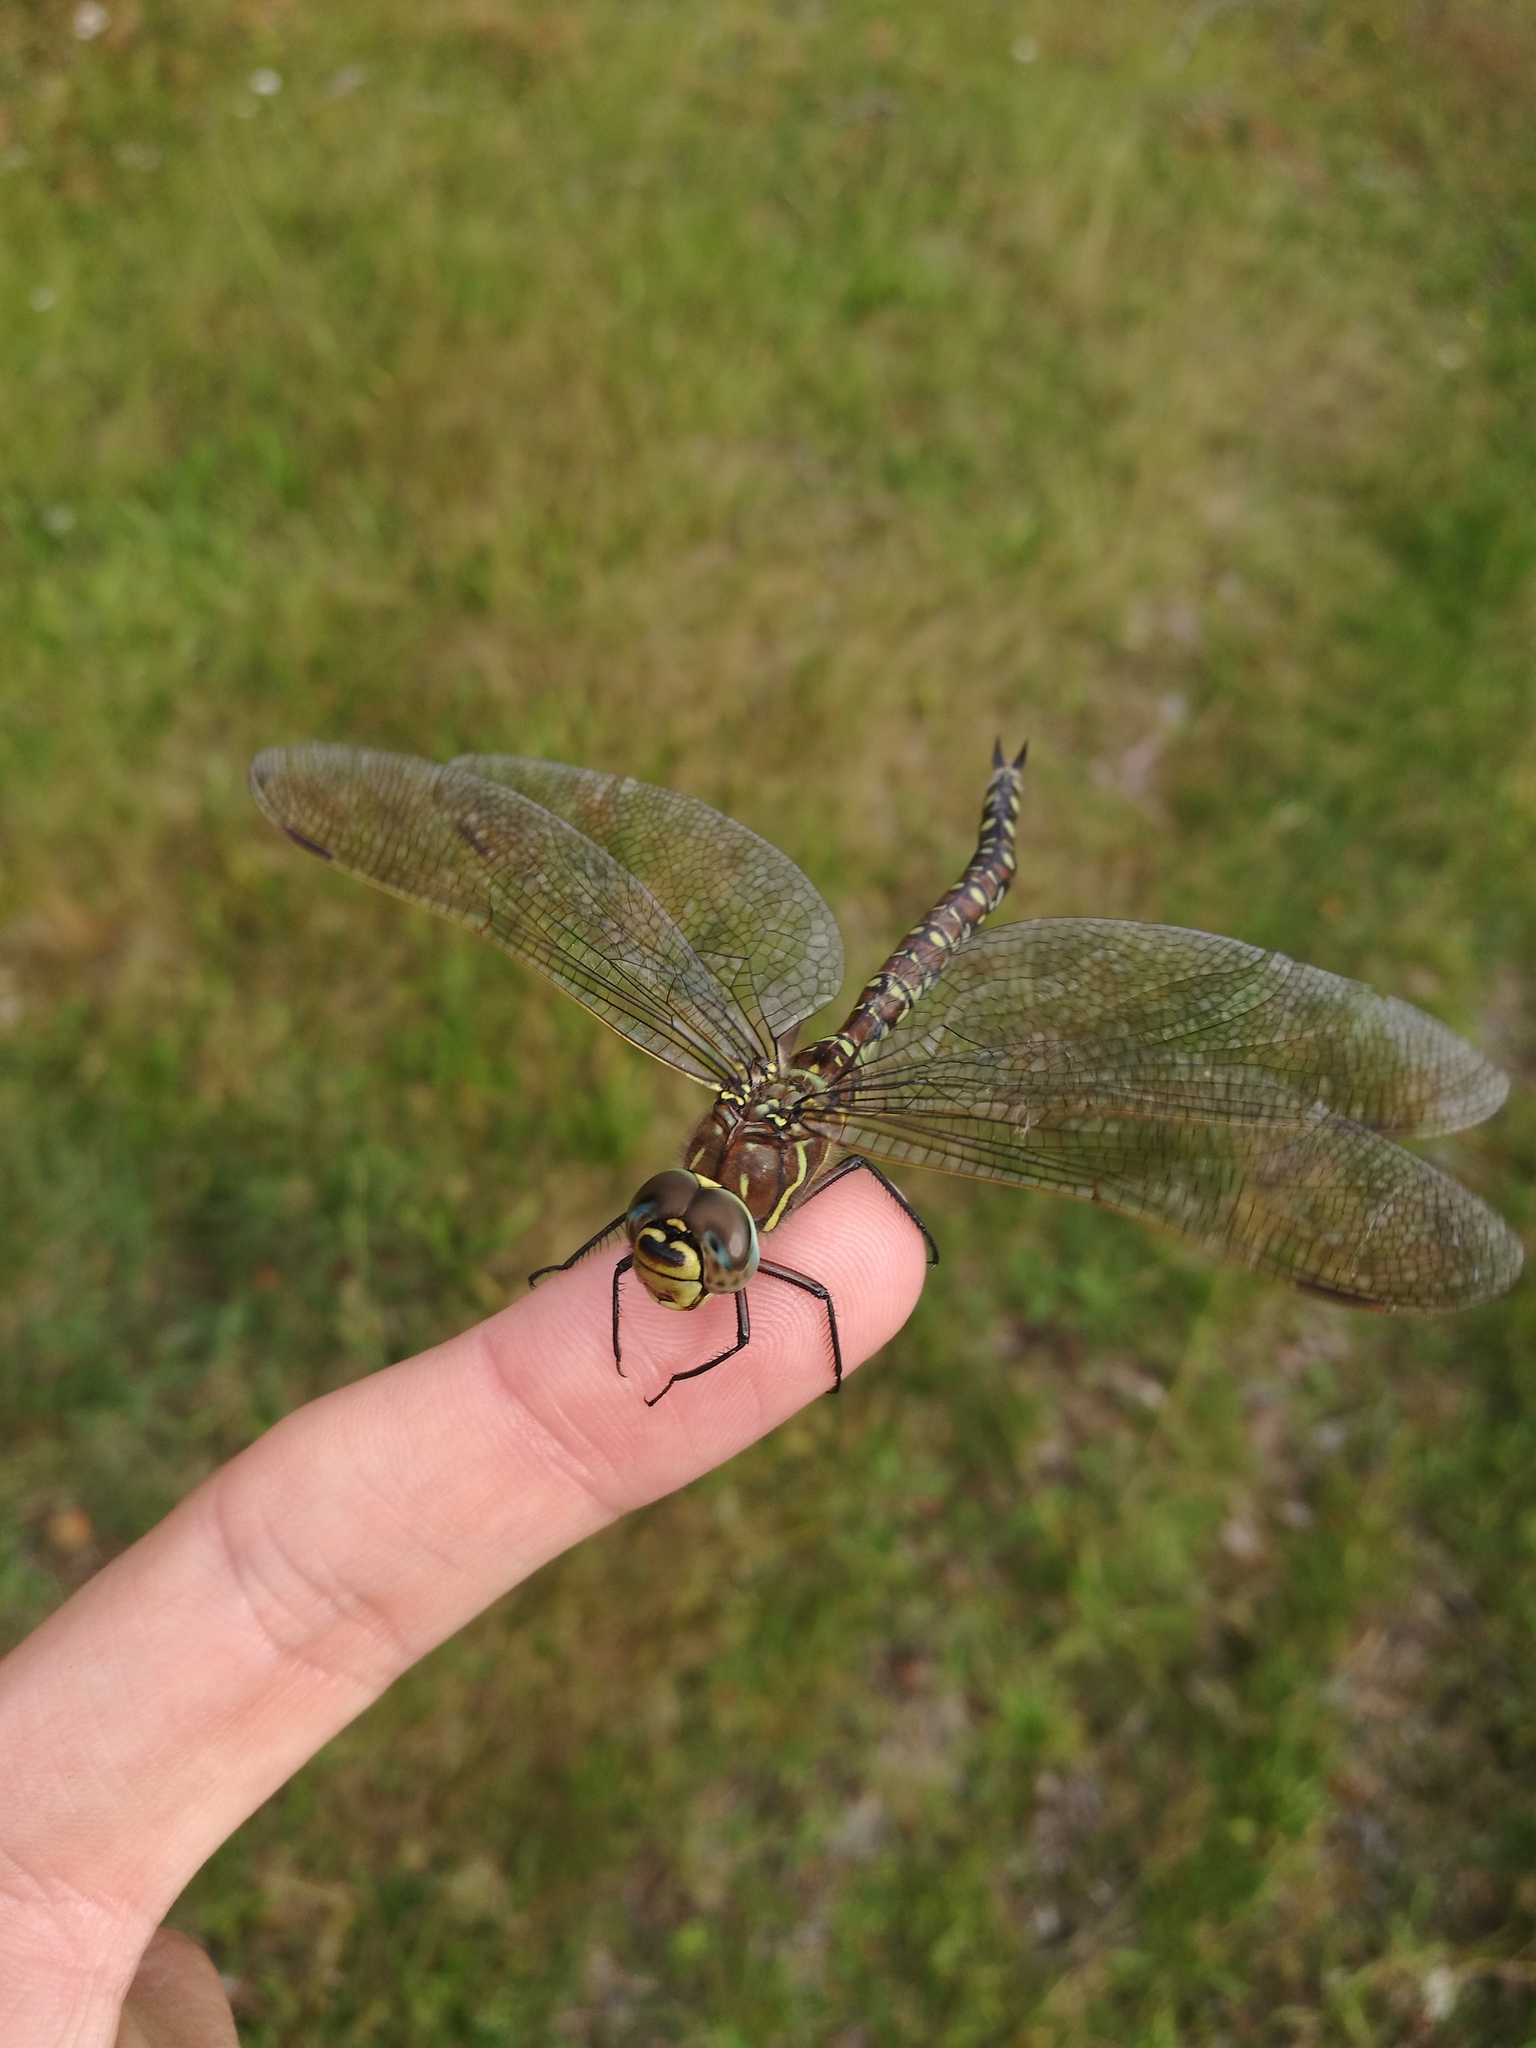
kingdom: Animalia
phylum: Arthropoda
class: Insecta
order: Odonata
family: Aeshnidae
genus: Aeshna
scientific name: Aeshna juncea
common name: Moorland hawker
